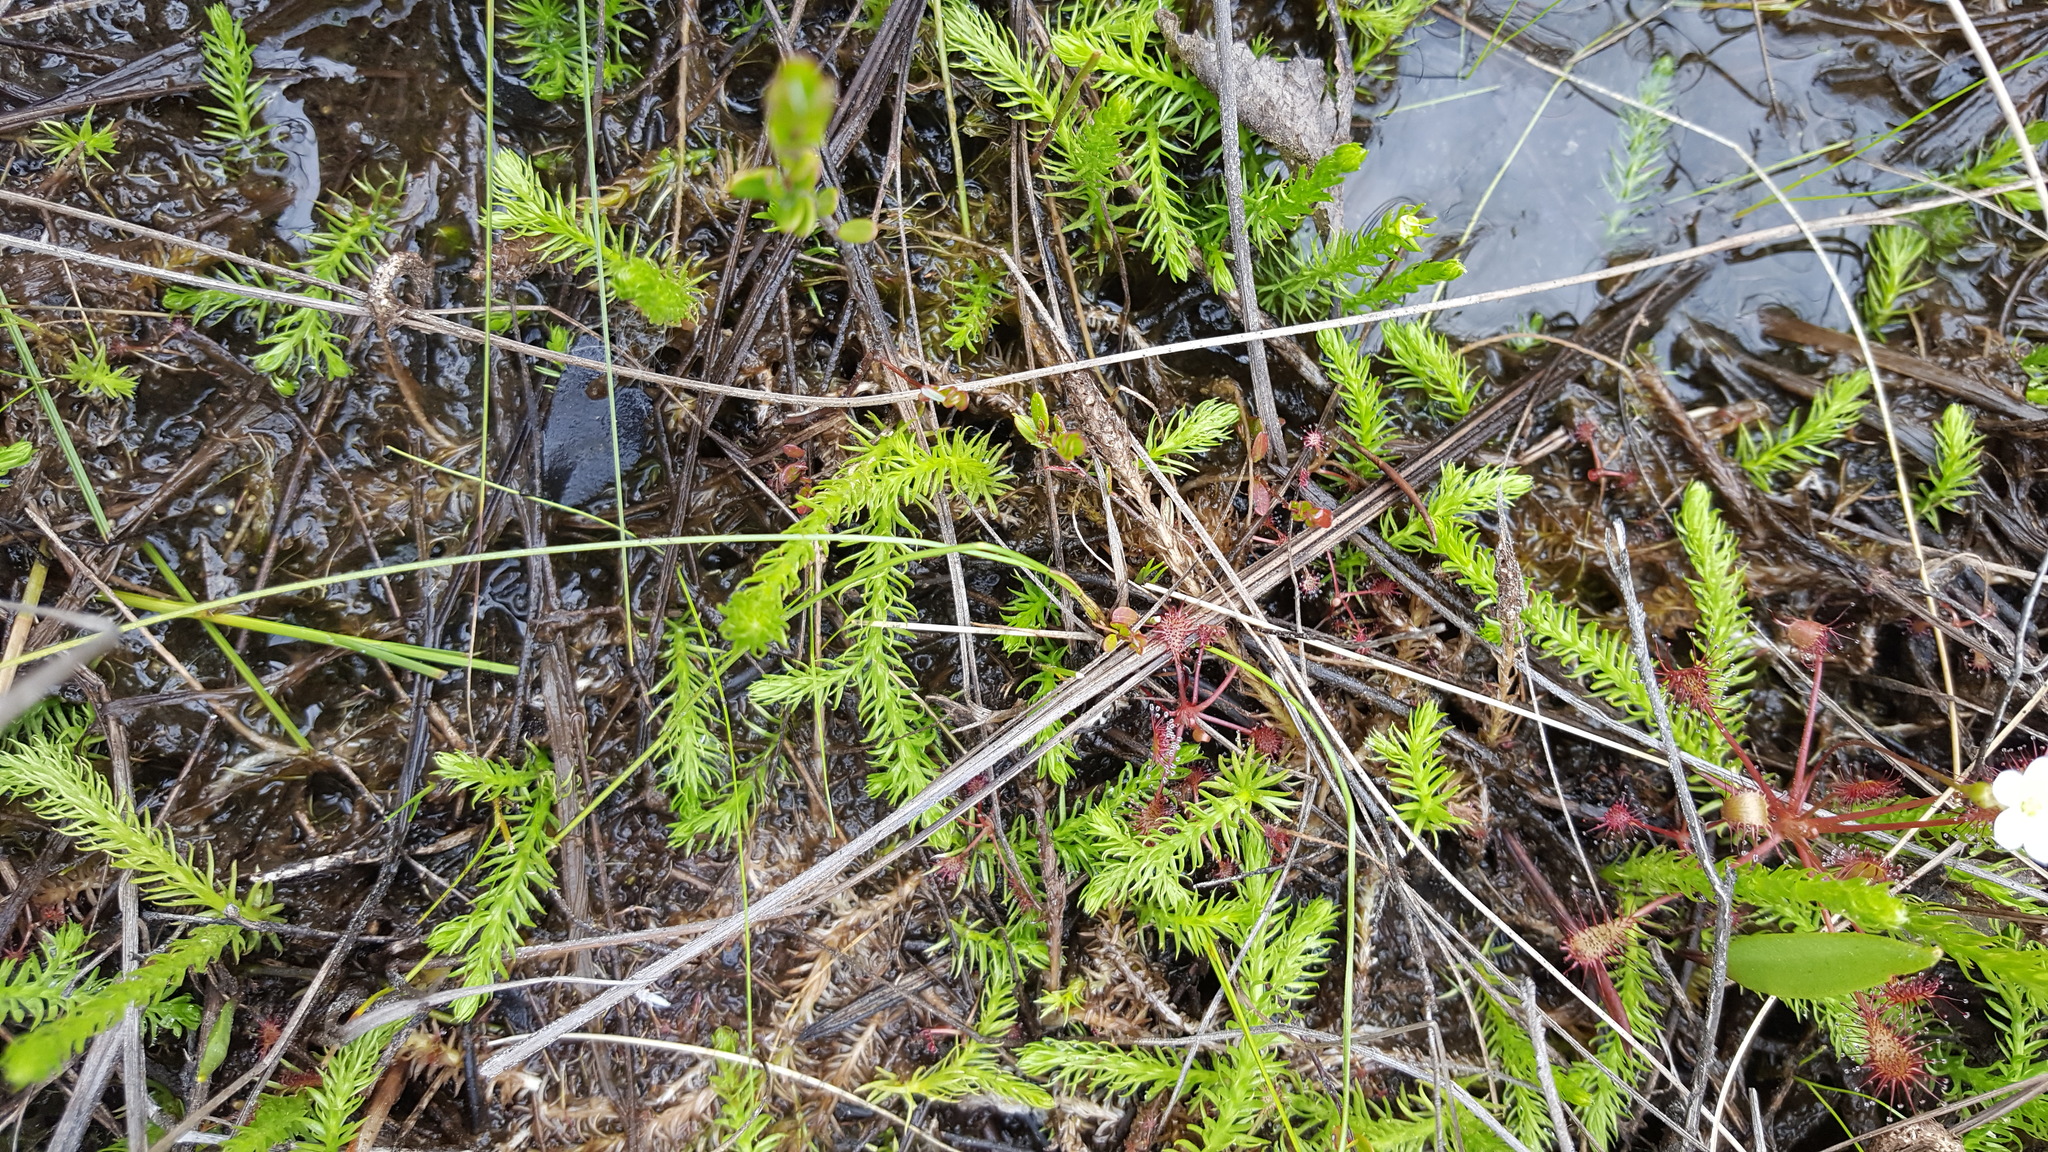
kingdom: Plantae
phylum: Tracheophyta
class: Lycopodiopsida
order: Lycopodiales
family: Lycopodiaceae
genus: Lycopodiella
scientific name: Lycopodiella inundata
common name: Marsh clubmoss
